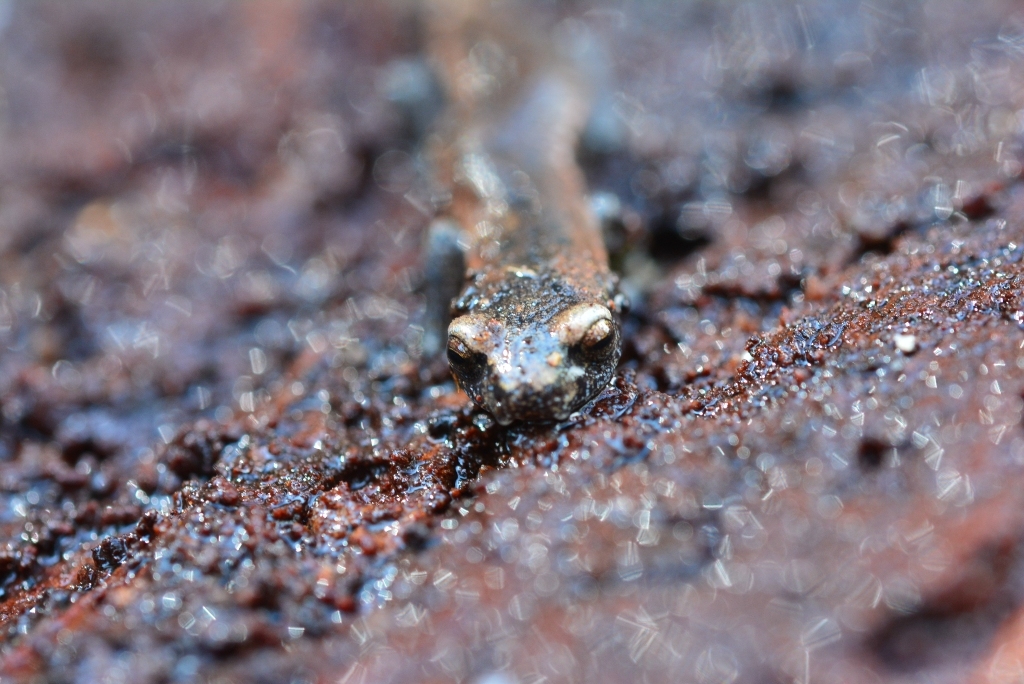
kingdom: Animalia
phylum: Chordata
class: Amphibia
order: Caudata
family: Plethodontidae
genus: Bolitoglossa
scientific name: Bolitoglossa hartwegi
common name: Hartweg's mushroomtongue salamander
